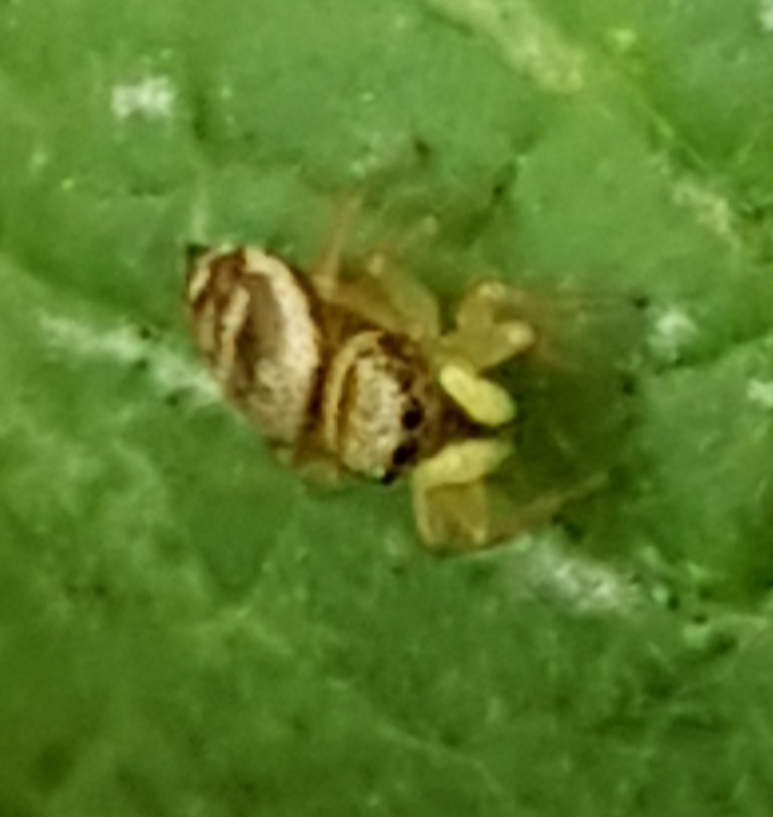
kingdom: Animalia
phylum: Arthropoda
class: Arachnida
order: Araneae
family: Salticidae
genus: Heliophanus
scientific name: Heliophanus tribulosus
